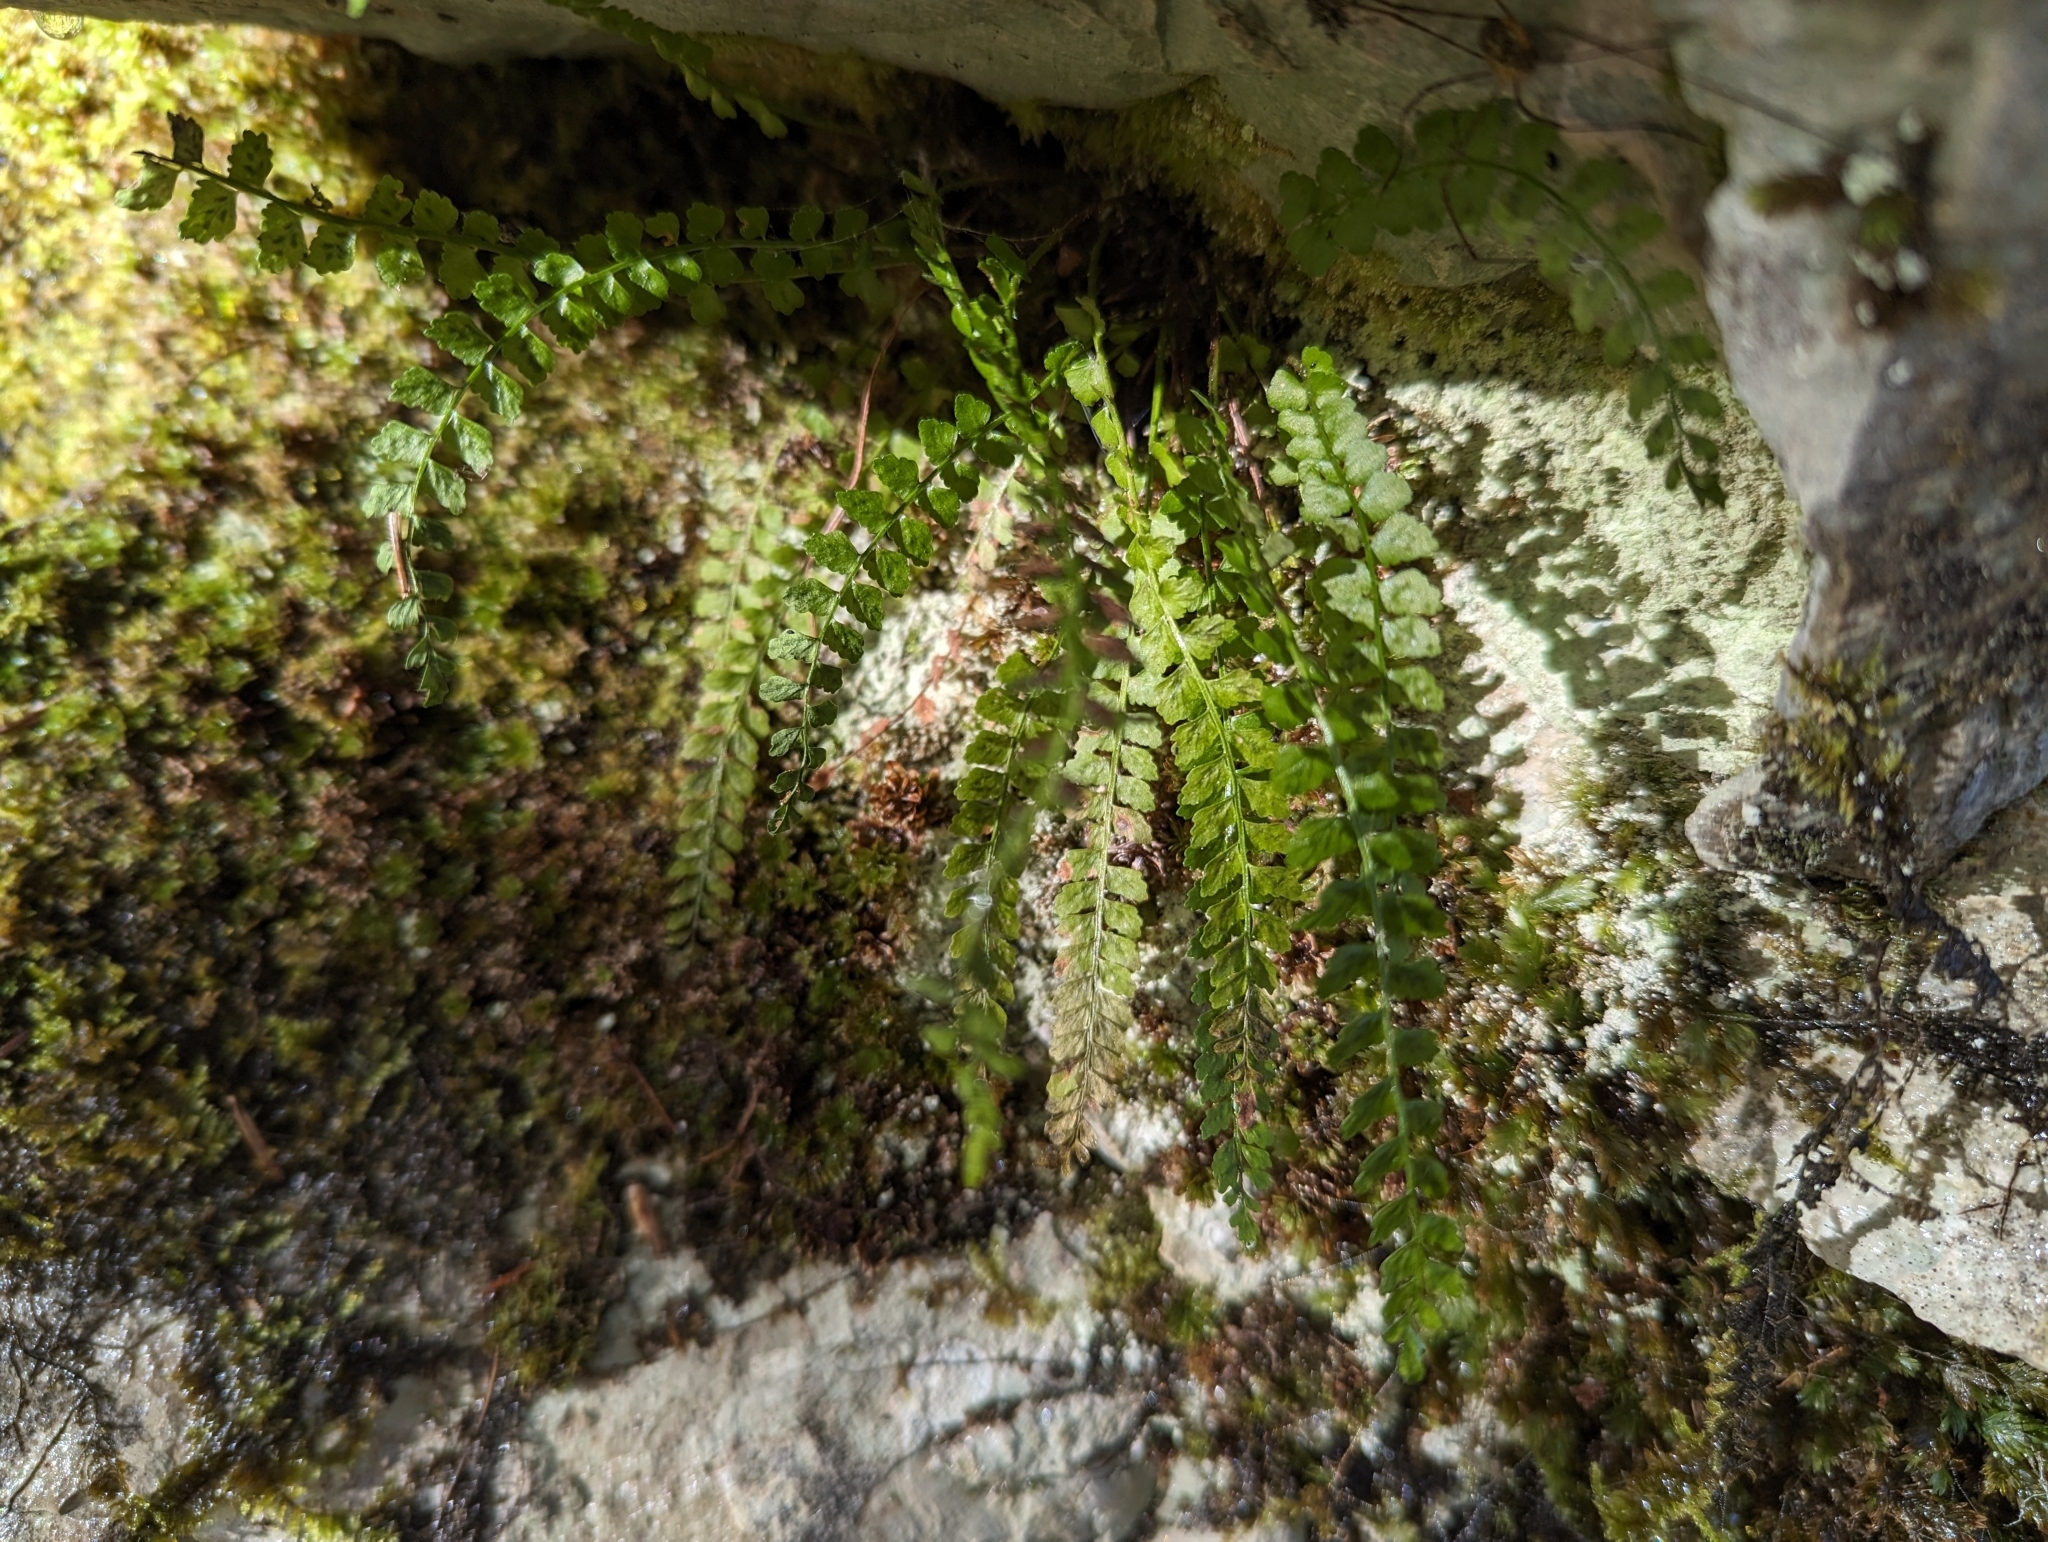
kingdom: Plantae
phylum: Tracheophyta
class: Polypodiopsida
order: Polypodiales
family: Aspleniaceae
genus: Asplenium
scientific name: Asplenium viride
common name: Green spleenwort
